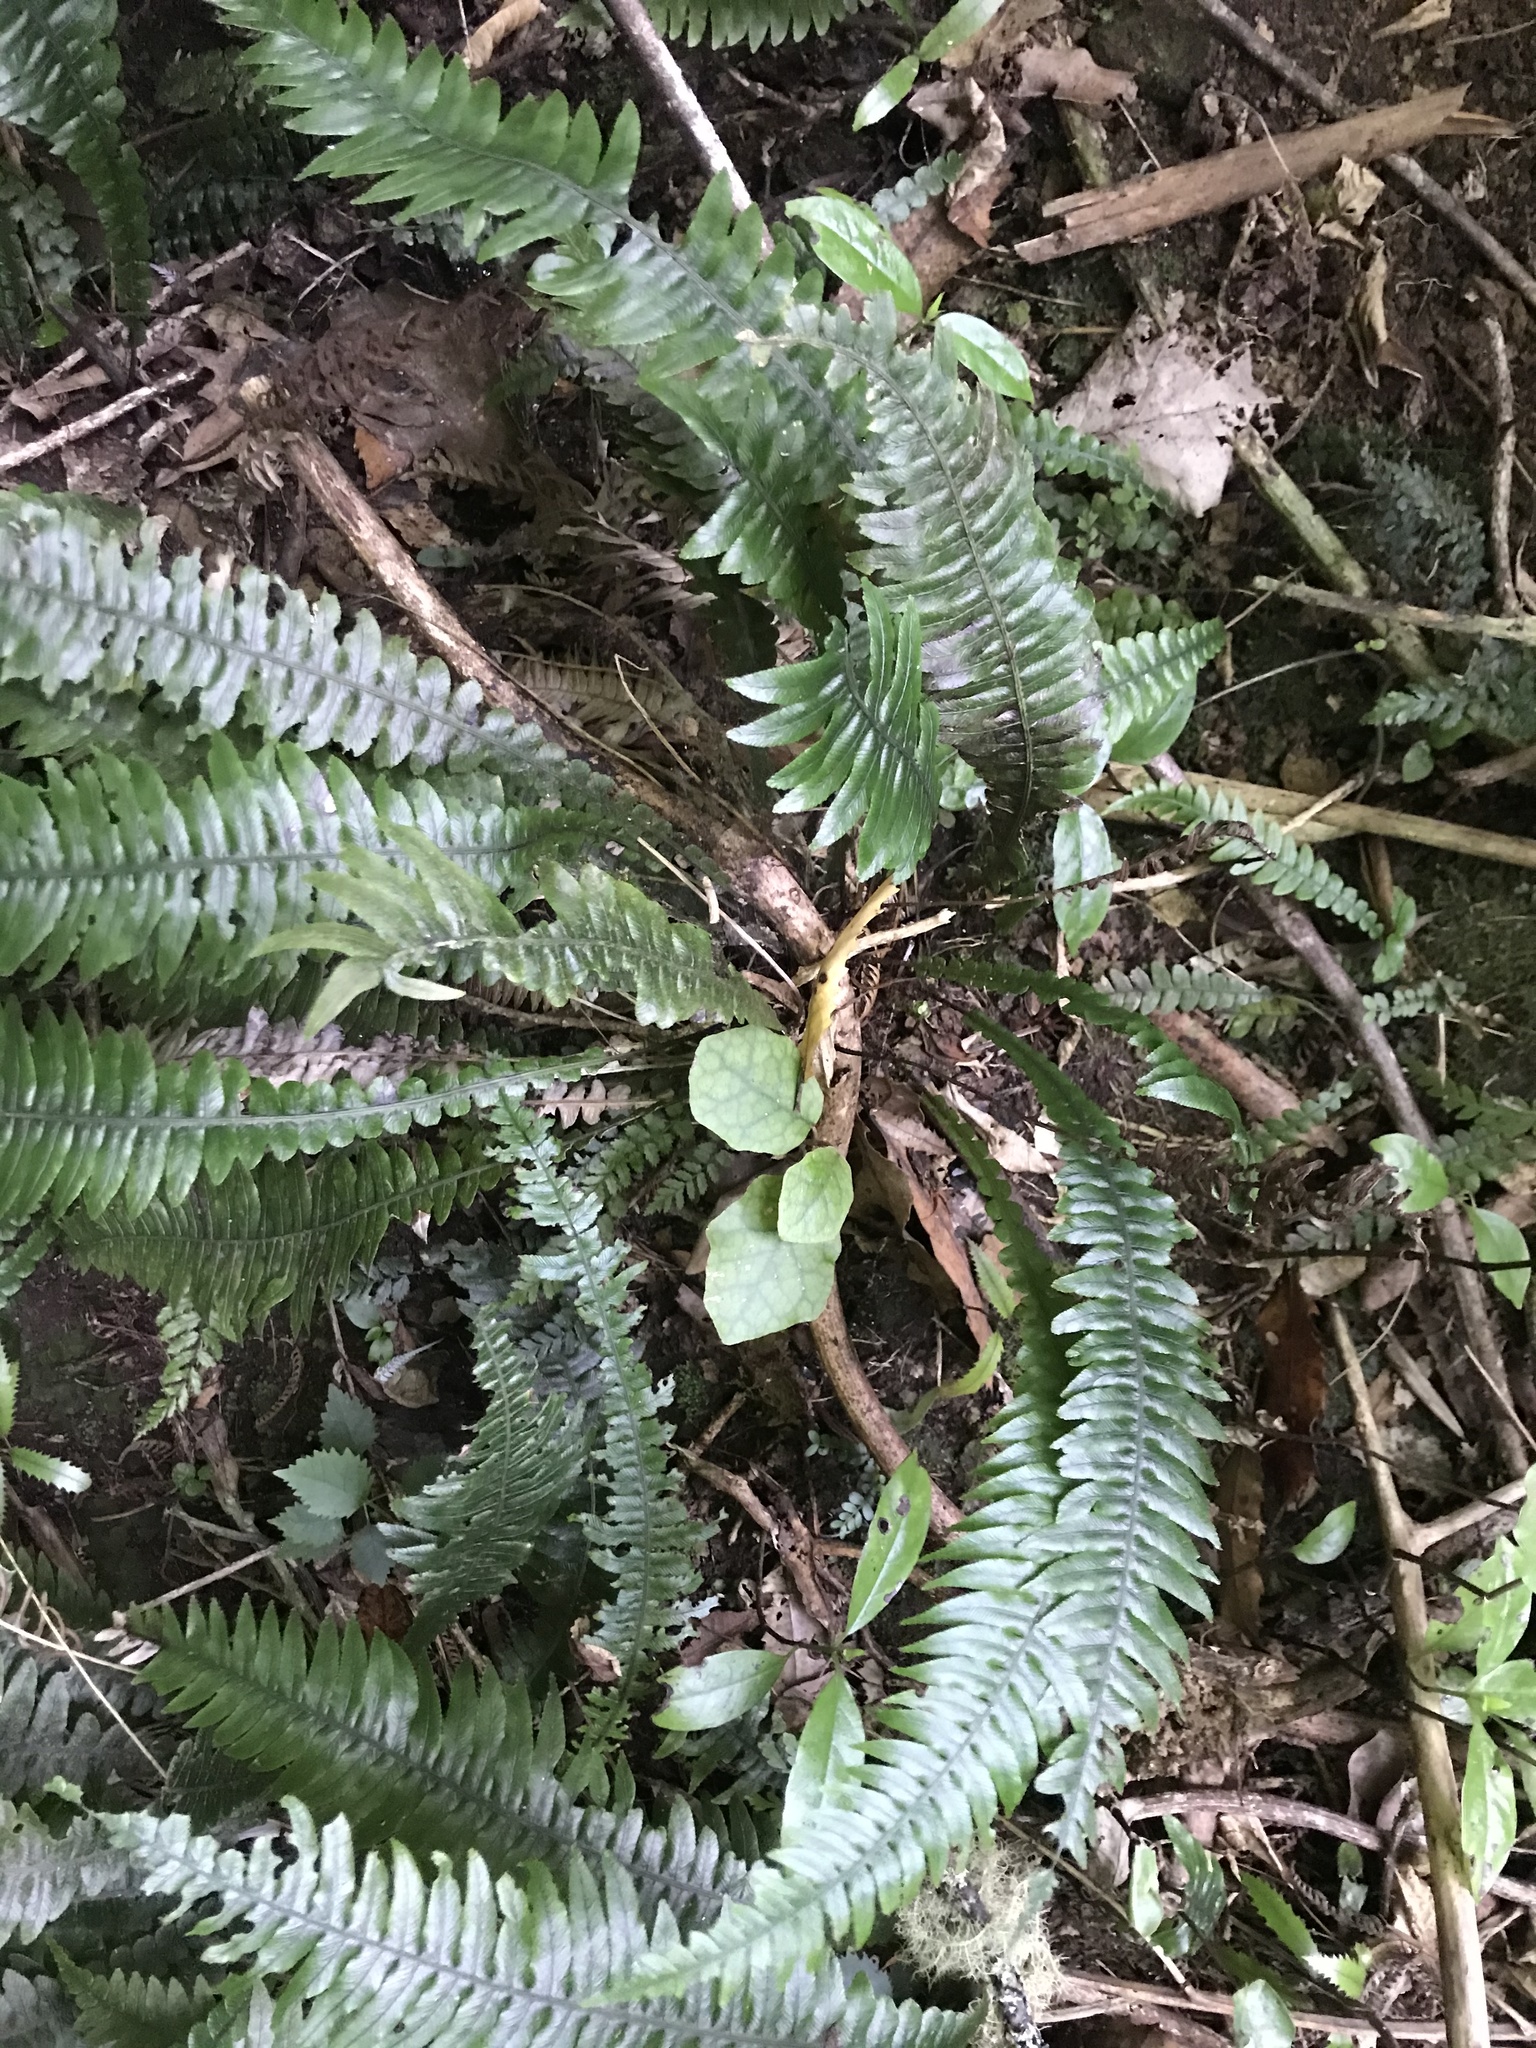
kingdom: Plantae
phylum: Tracheophyta
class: Polypodiopsida
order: Polypodiales
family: Blechnaceae
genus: Austroblechnum
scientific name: Austroblechnum lanceolatum
